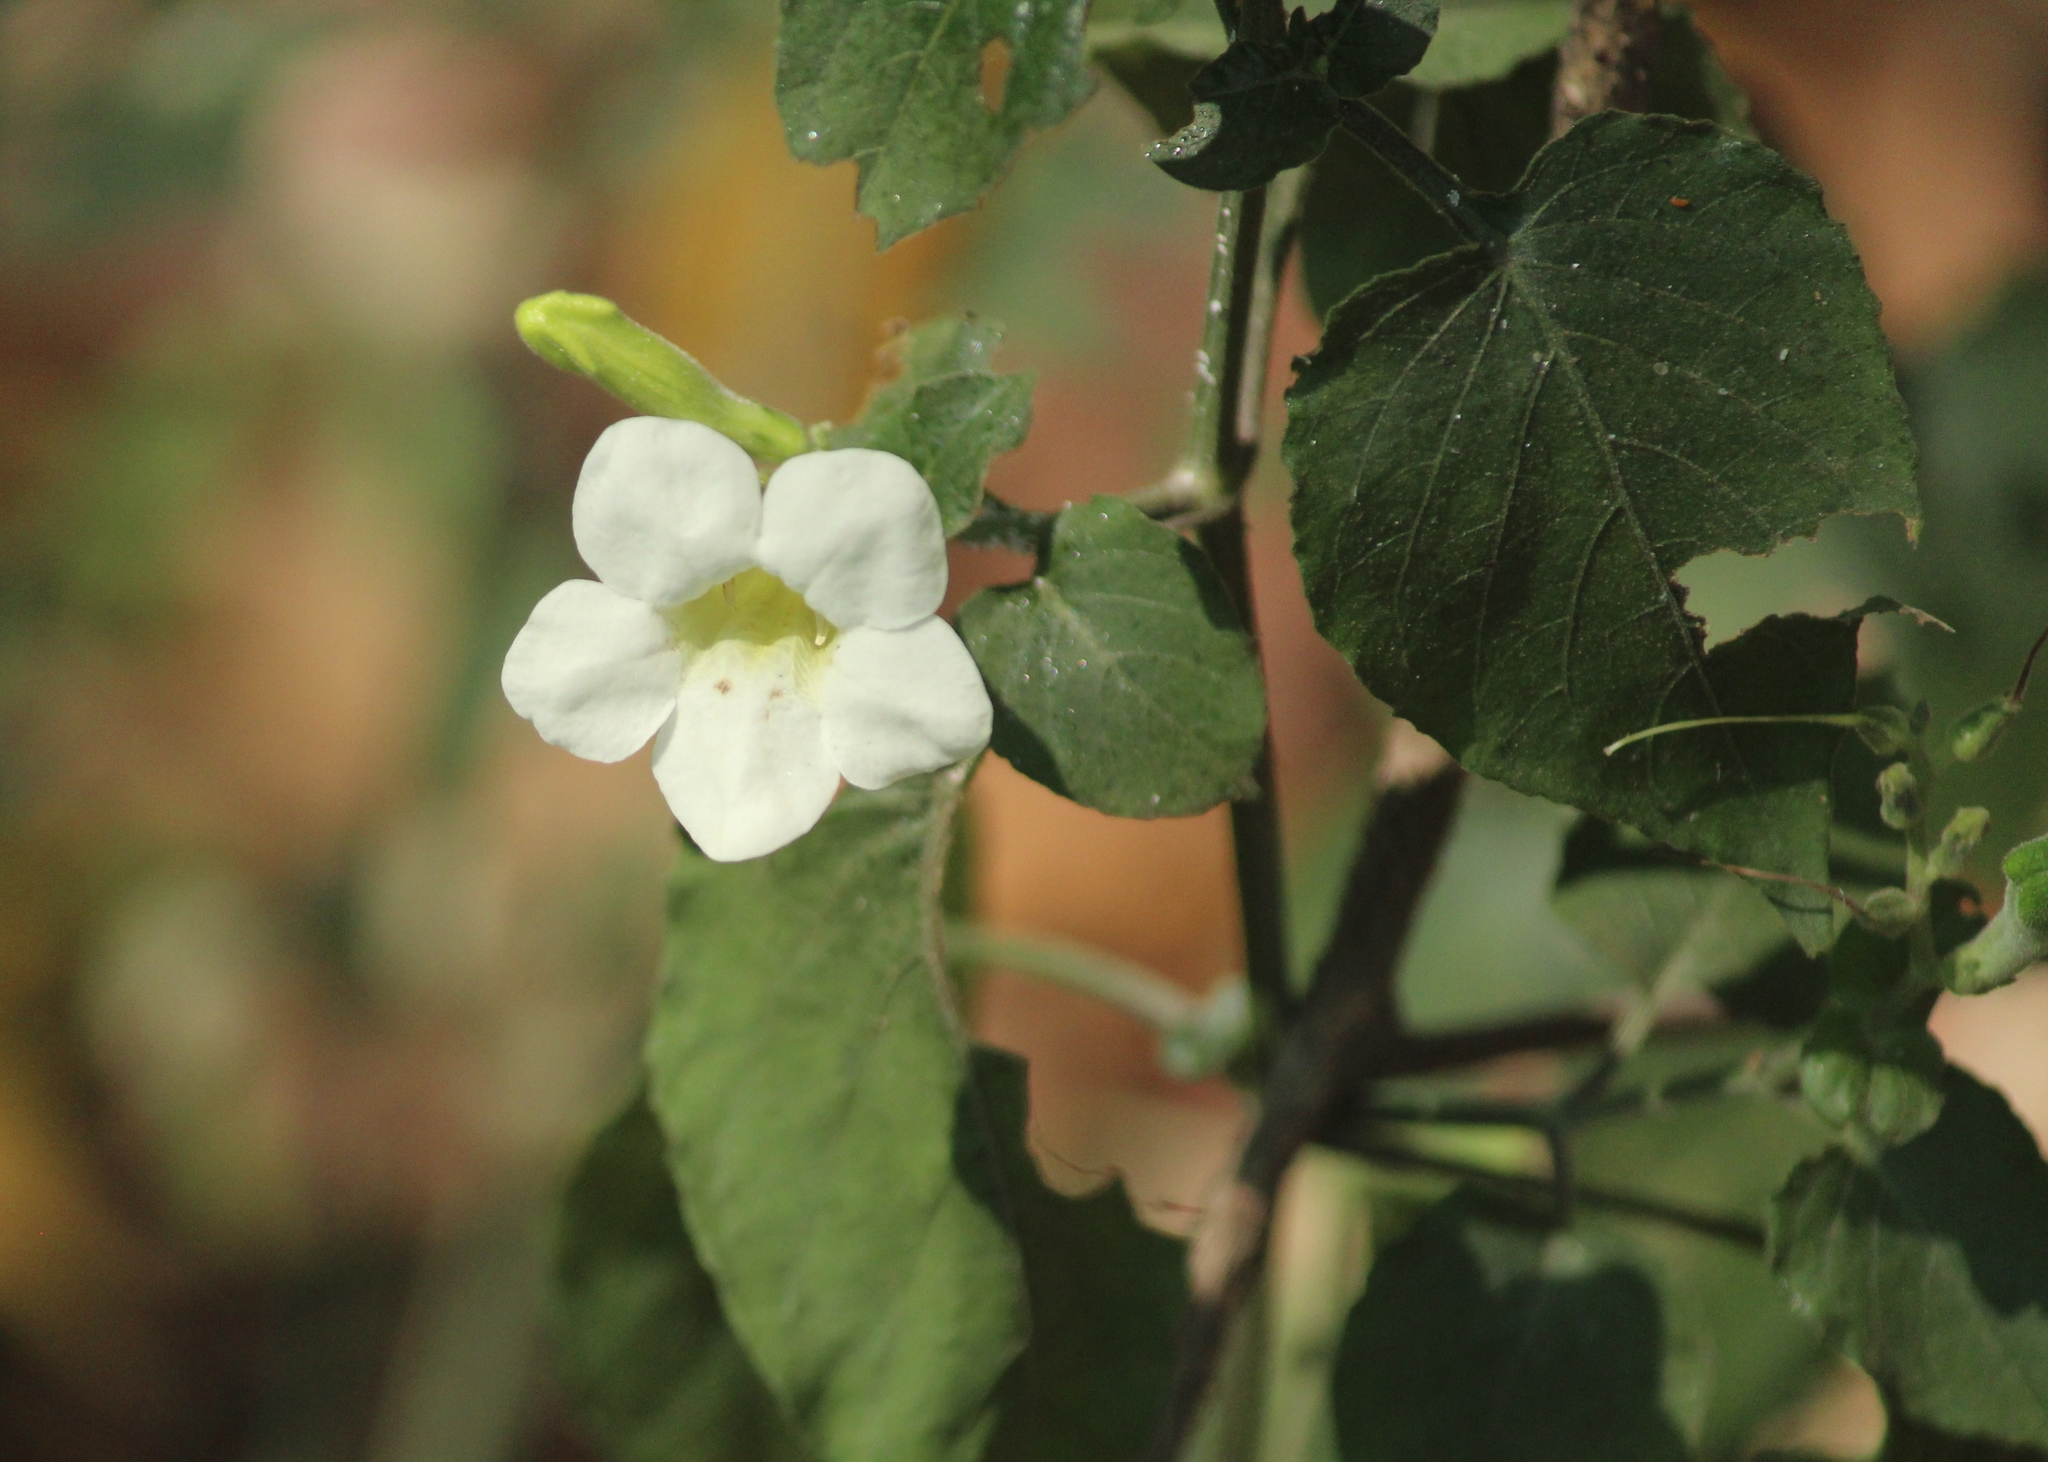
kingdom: Plantae
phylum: Tracheophyta
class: Magnoliopsida
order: Lamiales
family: Acanthaceae
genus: Asystasia
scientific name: Asystasia gangetica
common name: Chinese violet
